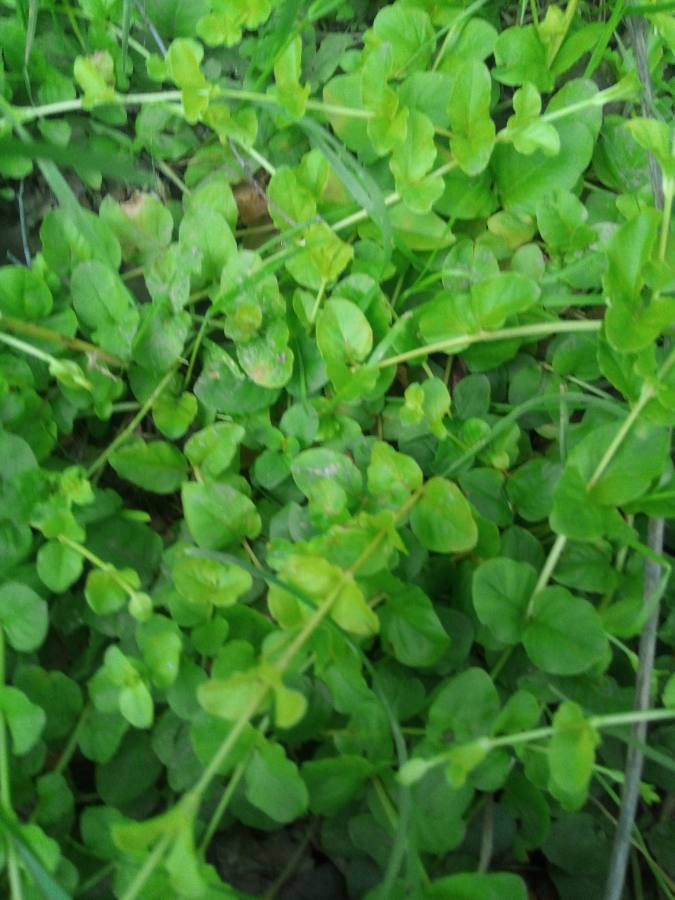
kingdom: Plantae
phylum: Tracheophyta
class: Magnoliopsida
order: Ericales
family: Primulaceae
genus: Lysimachia
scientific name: Lysimachia nummularia
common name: Moneywort
